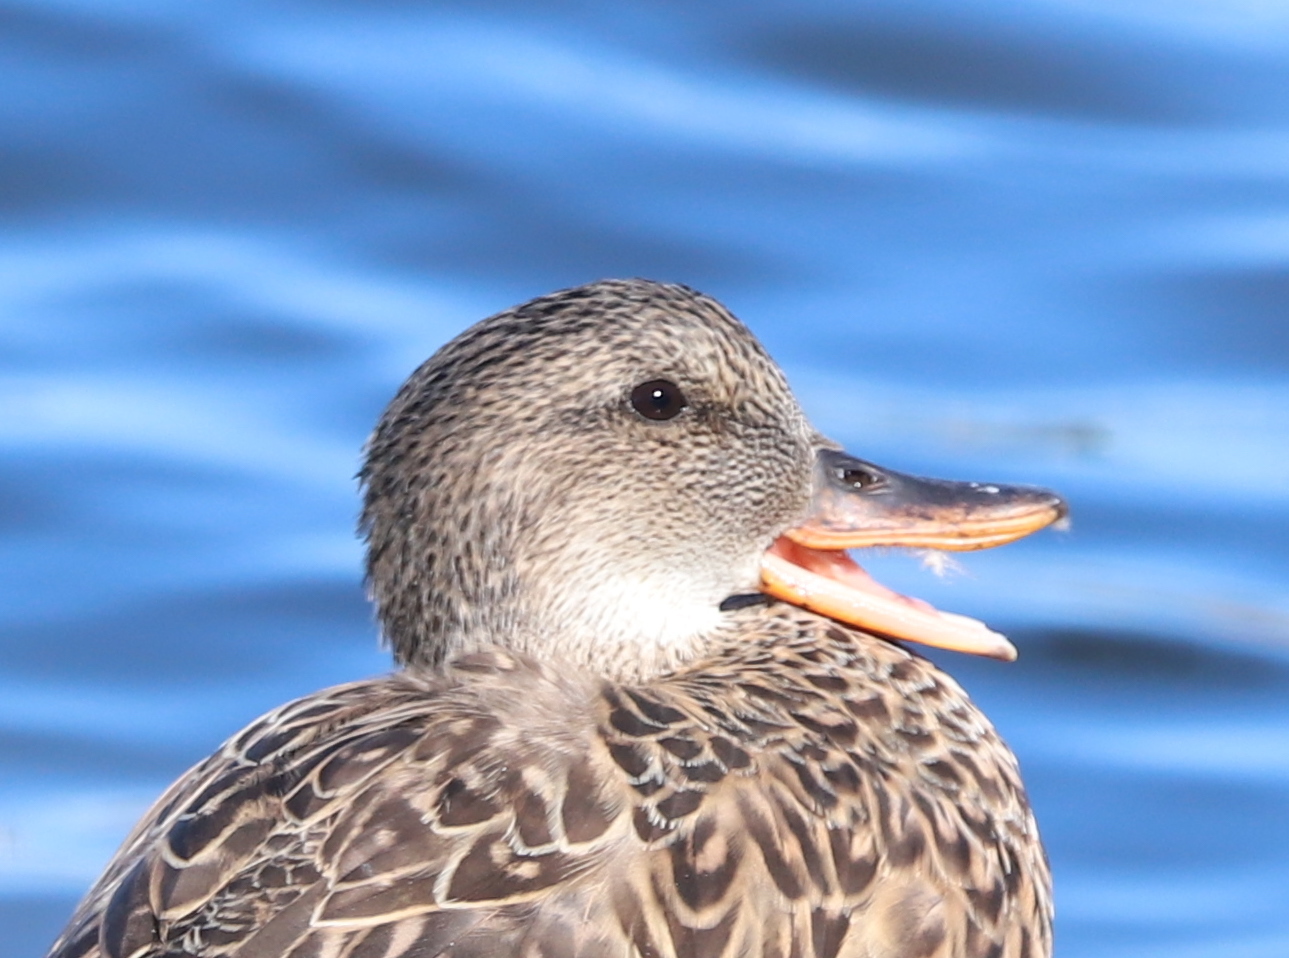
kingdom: Animalia
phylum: Chordata
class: Aves
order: Anseriformes
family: Anatidae
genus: Mareca
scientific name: Mareca strepera
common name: Gadwall
